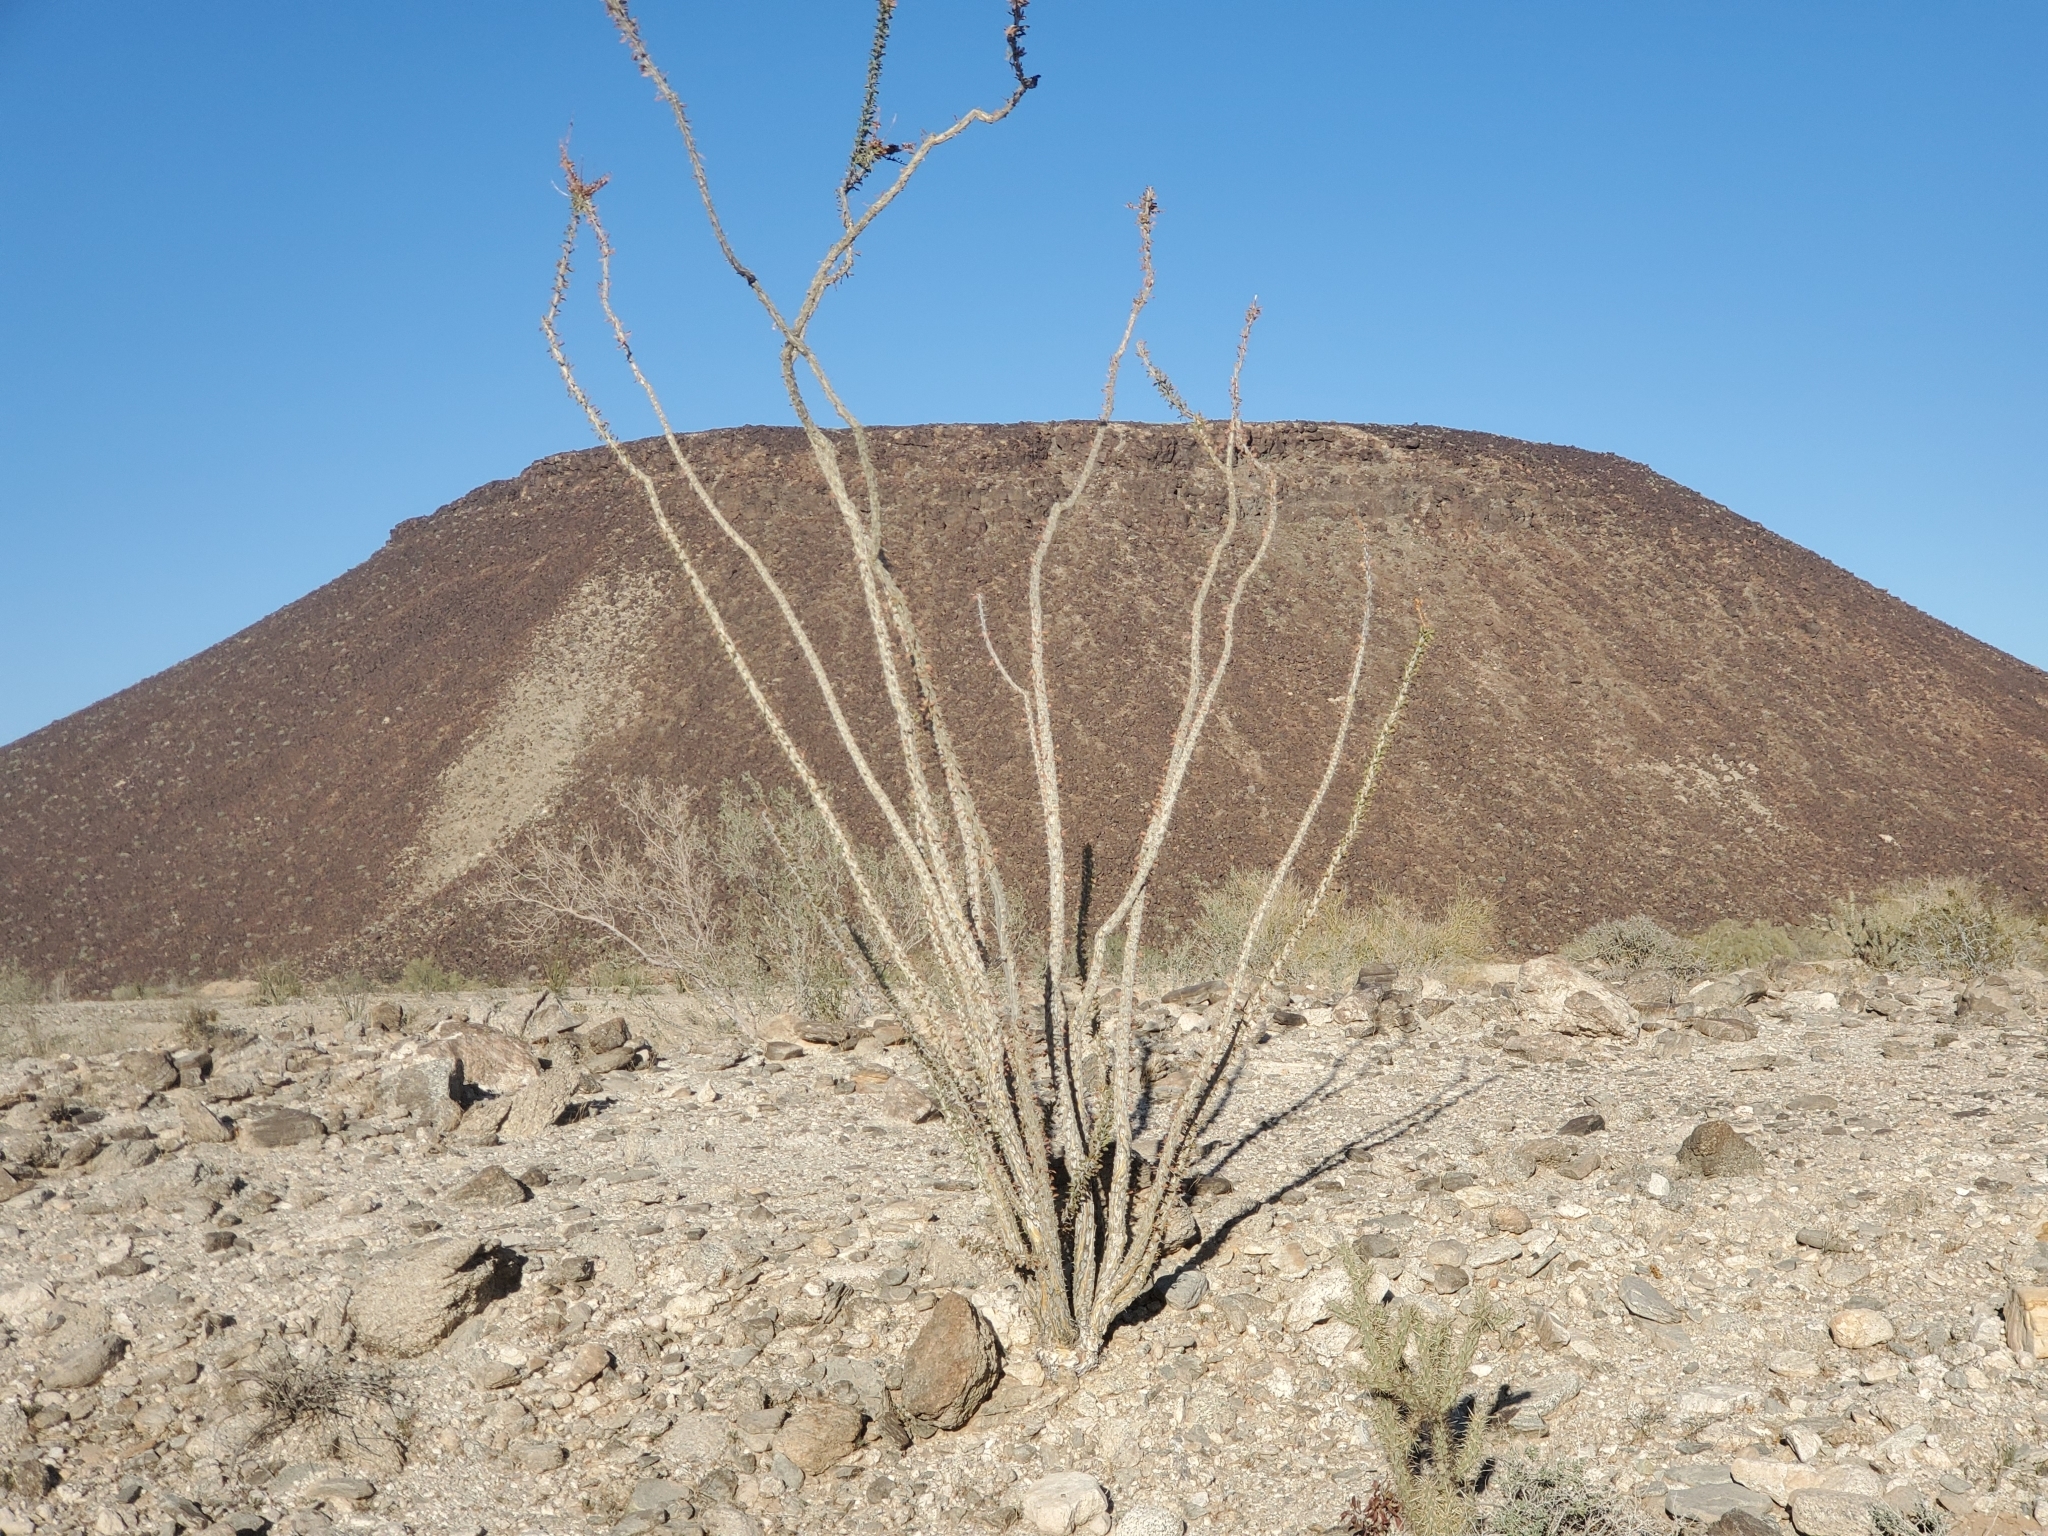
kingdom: Plantae
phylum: Tracheophyta
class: Magnoliopsida
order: Ericales
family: Fouquieriaceae
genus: Fouquieria
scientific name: Fouquieria splendens
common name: Vine-cactus
